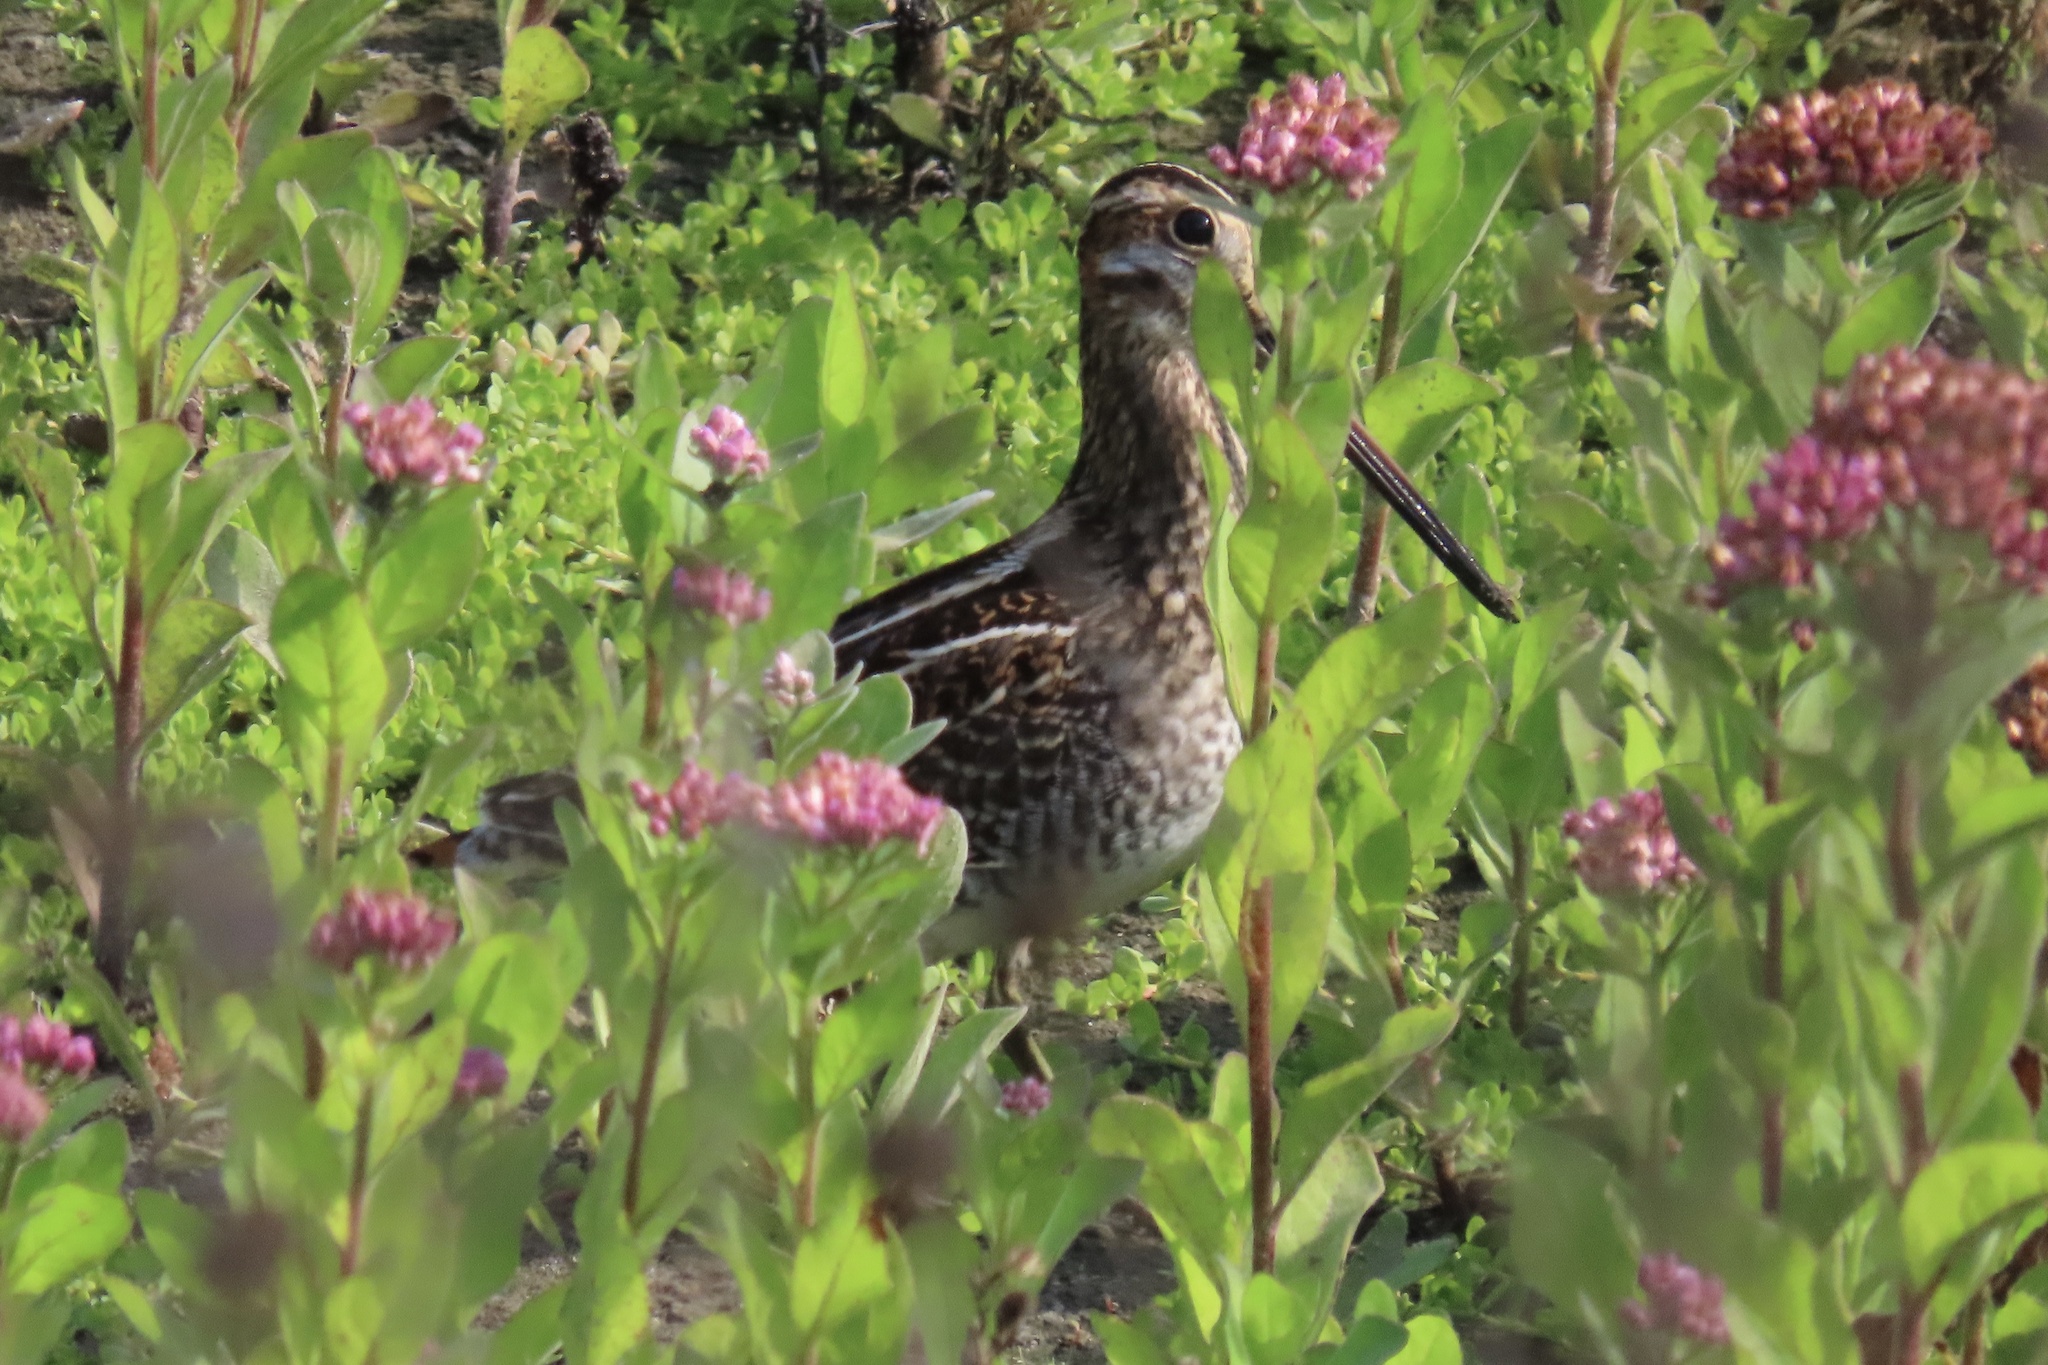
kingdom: Animalia
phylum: Chordata
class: Aves
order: Charadriiformes
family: Scolopacidae
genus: Gallinago
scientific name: Gallinago delicata
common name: Wilson's snipe
